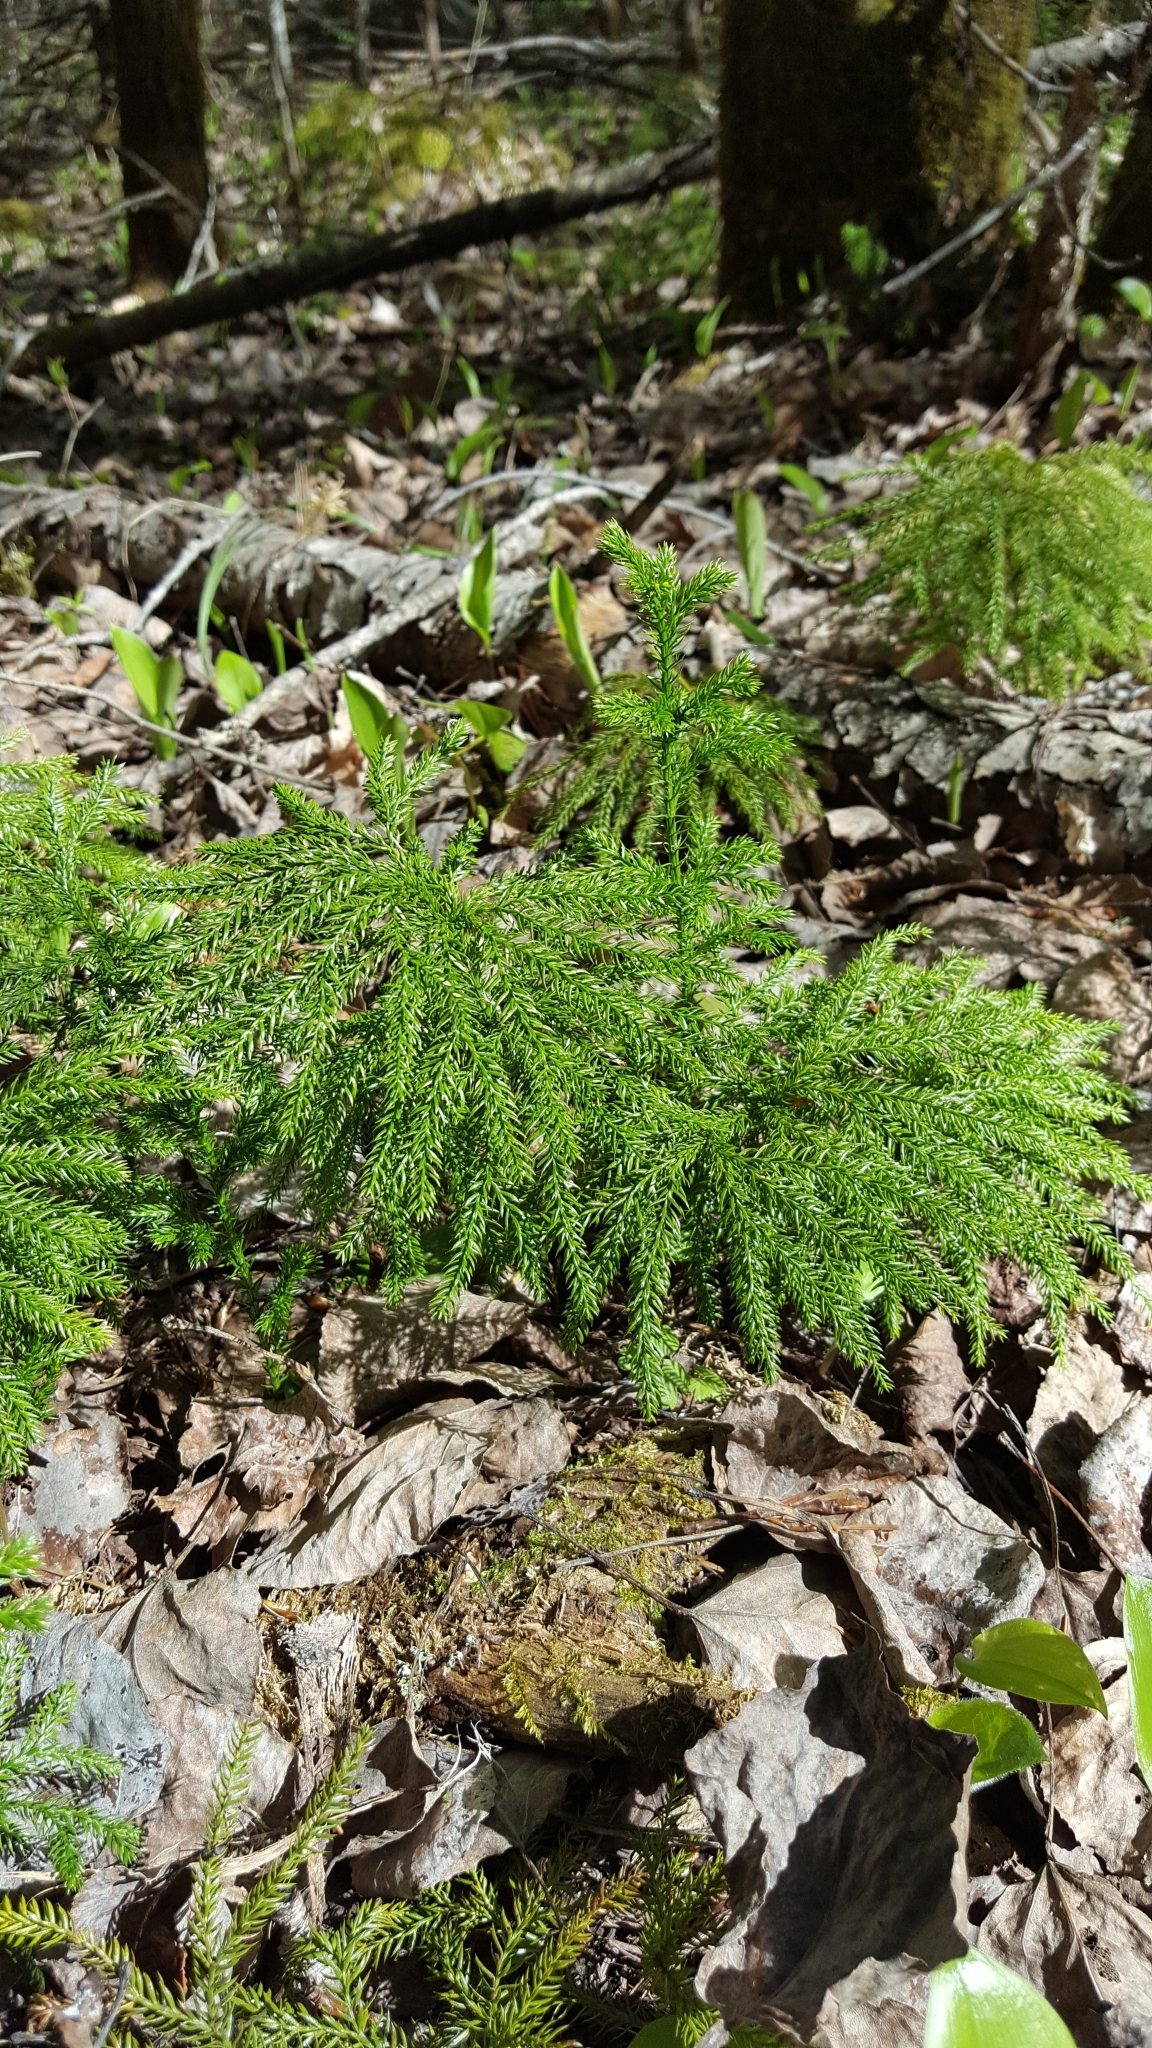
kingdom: Plantae
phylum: Tracheophyta
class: Lycopodiopsida
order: Lycopodiales
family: Lycopodiaceae
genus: Dendrolycopodium
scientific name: Dendrolycopodium dendroideum
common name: Northern tree-clubmoss
